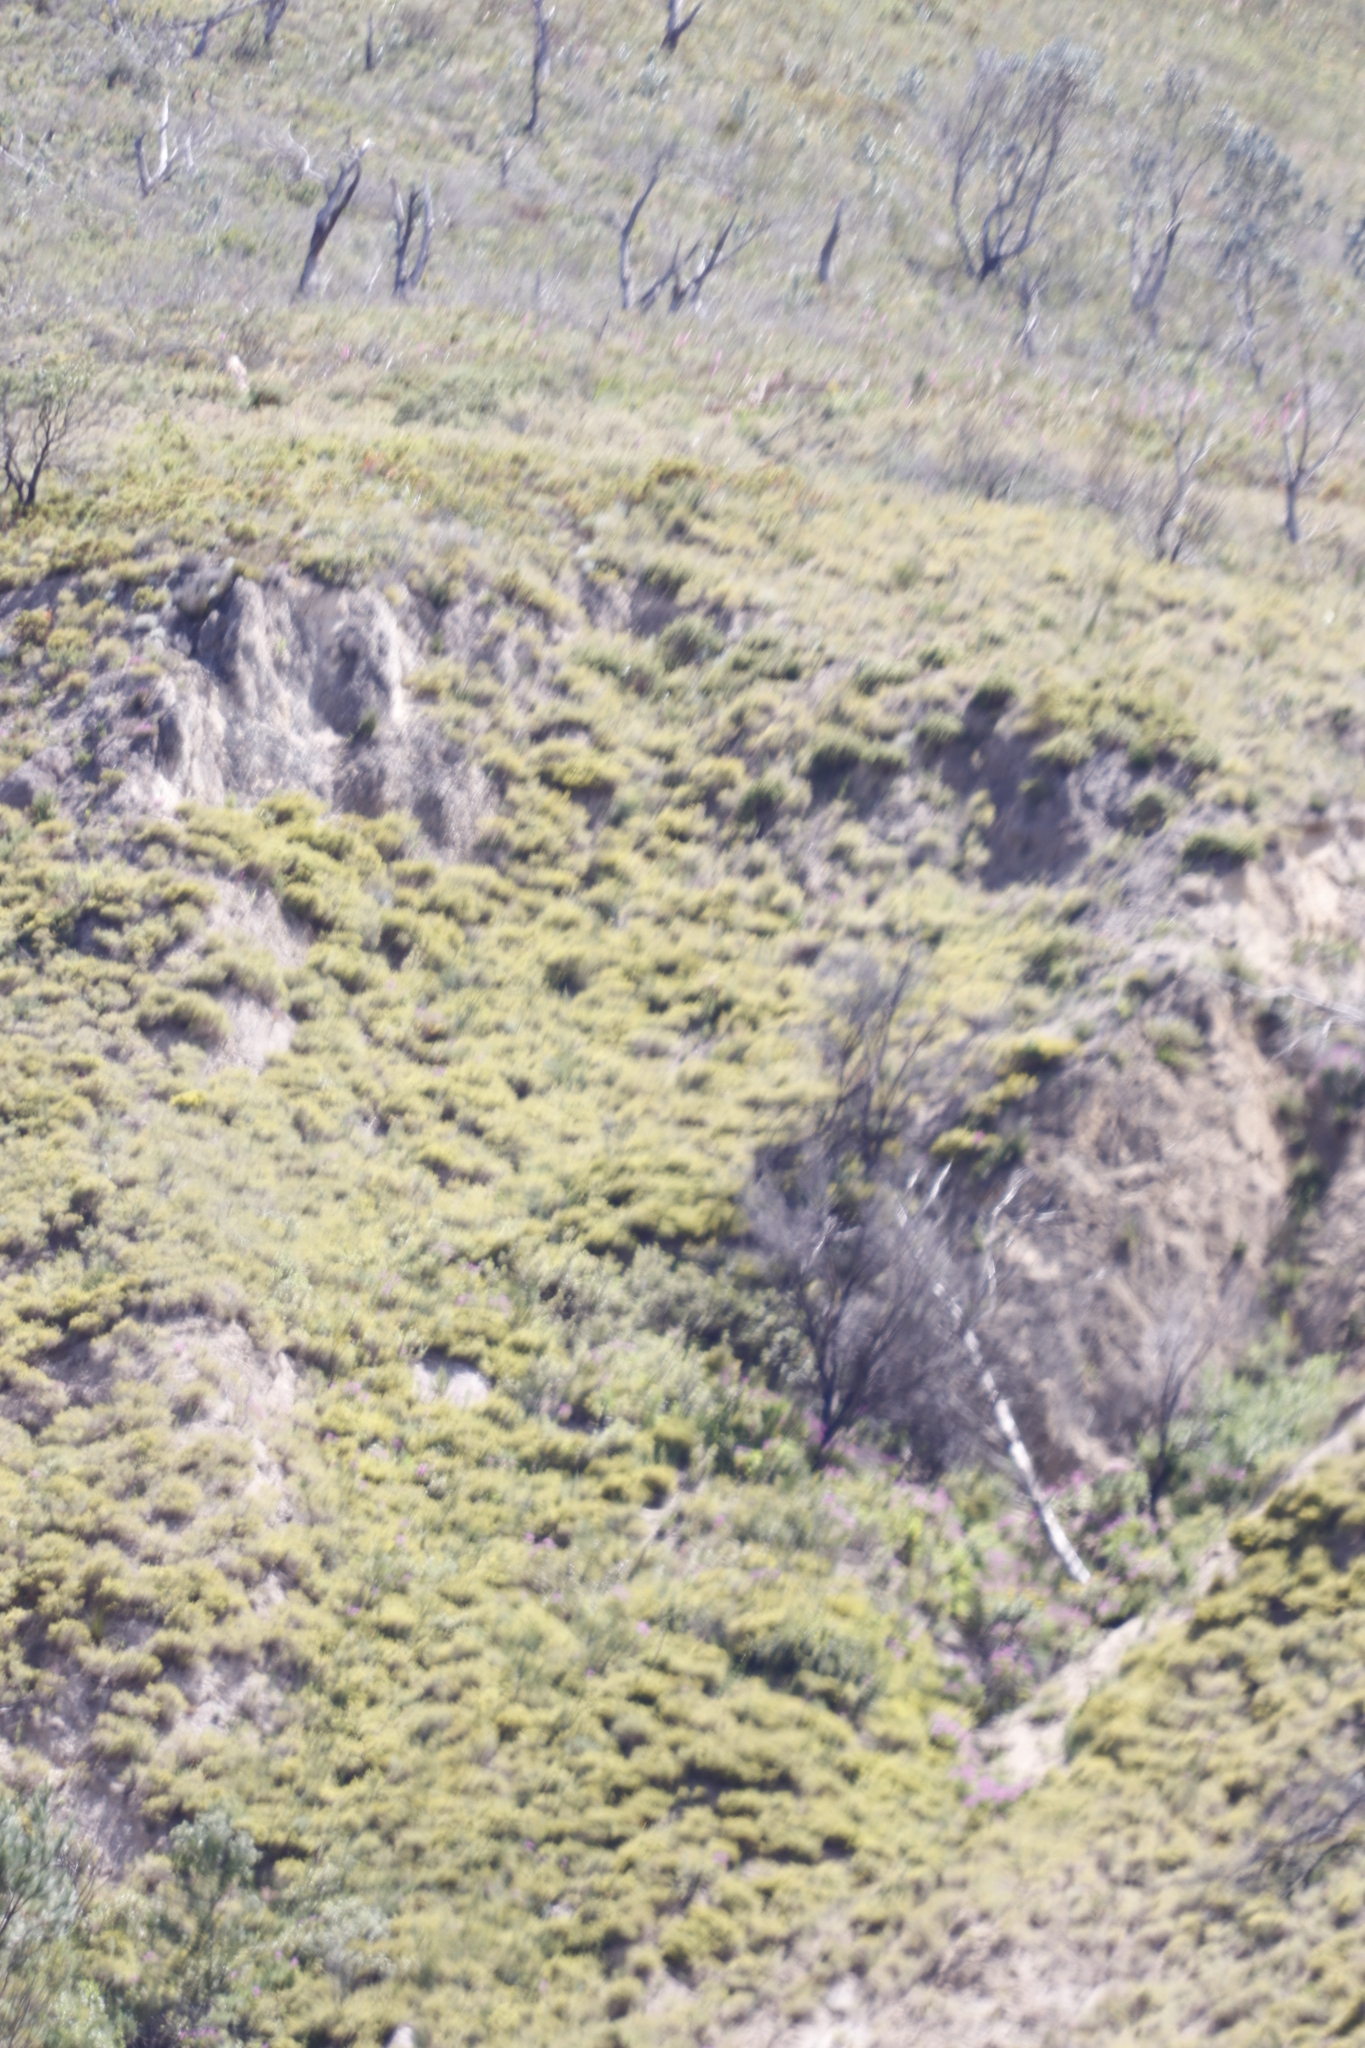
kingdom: Plantae
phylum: Tracheophyta
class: Magnoliopsida
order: Proteales
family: Proteaceae
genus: Leucadendron
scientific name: Leucadendron argenteum
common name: Cape silver tree
